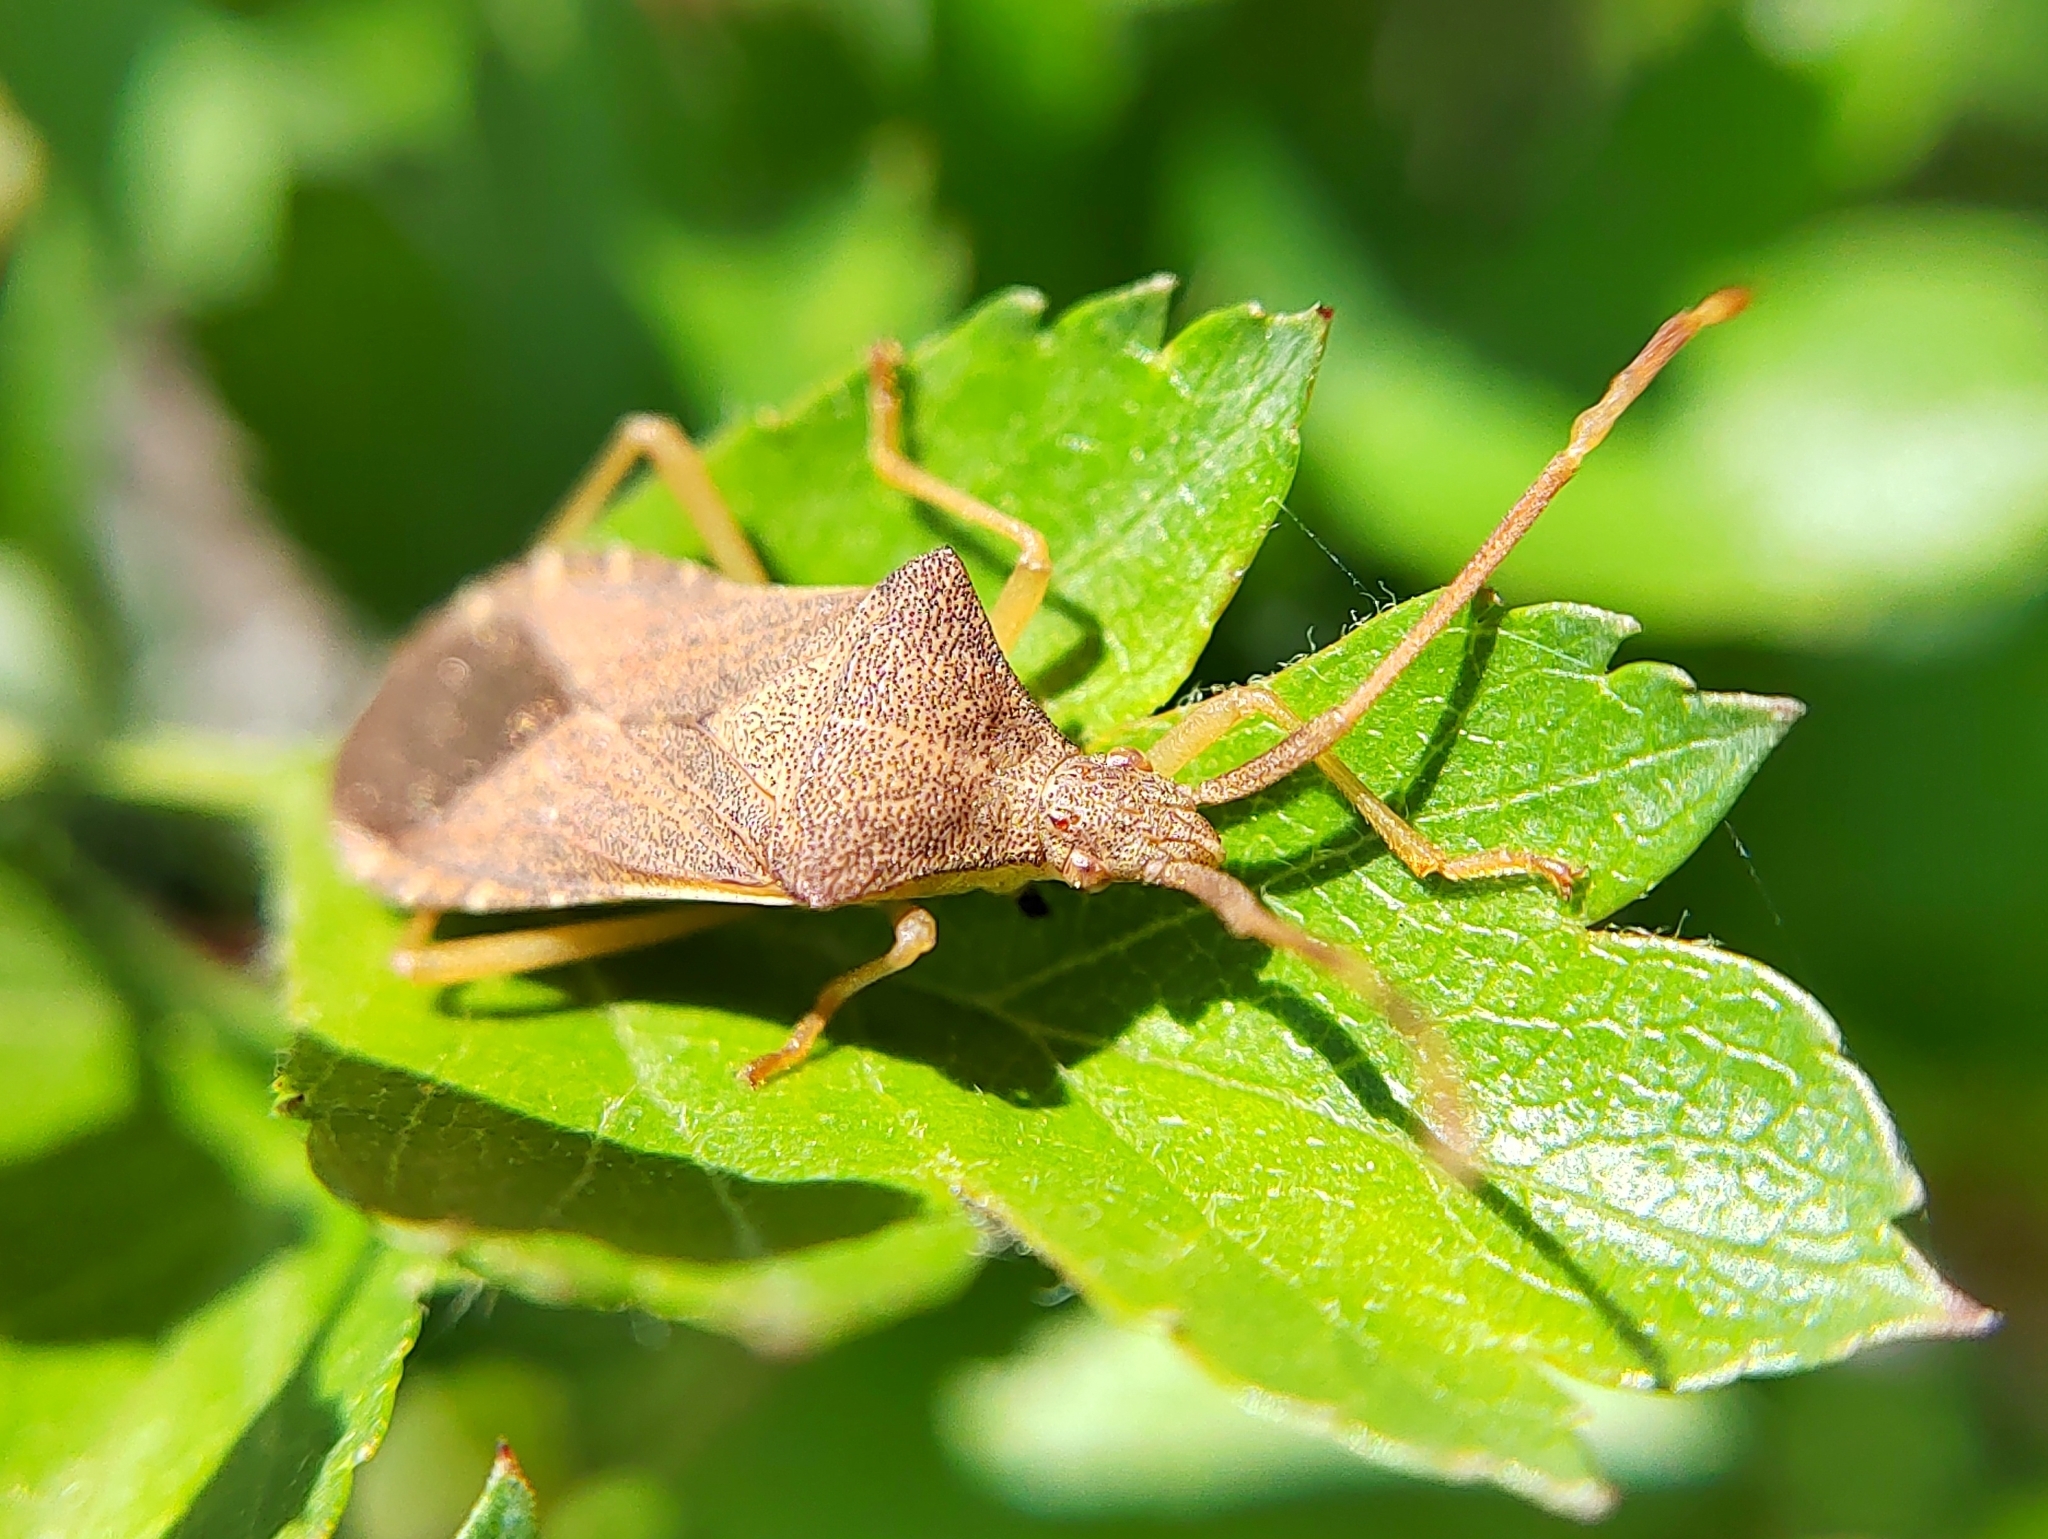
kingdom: Animalia
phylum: Arthropoda
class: Insecta
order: Hemiptera
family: Coreidae
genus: Gonocerus
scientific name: Gonocerus acuteangulatus
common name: Box bug
